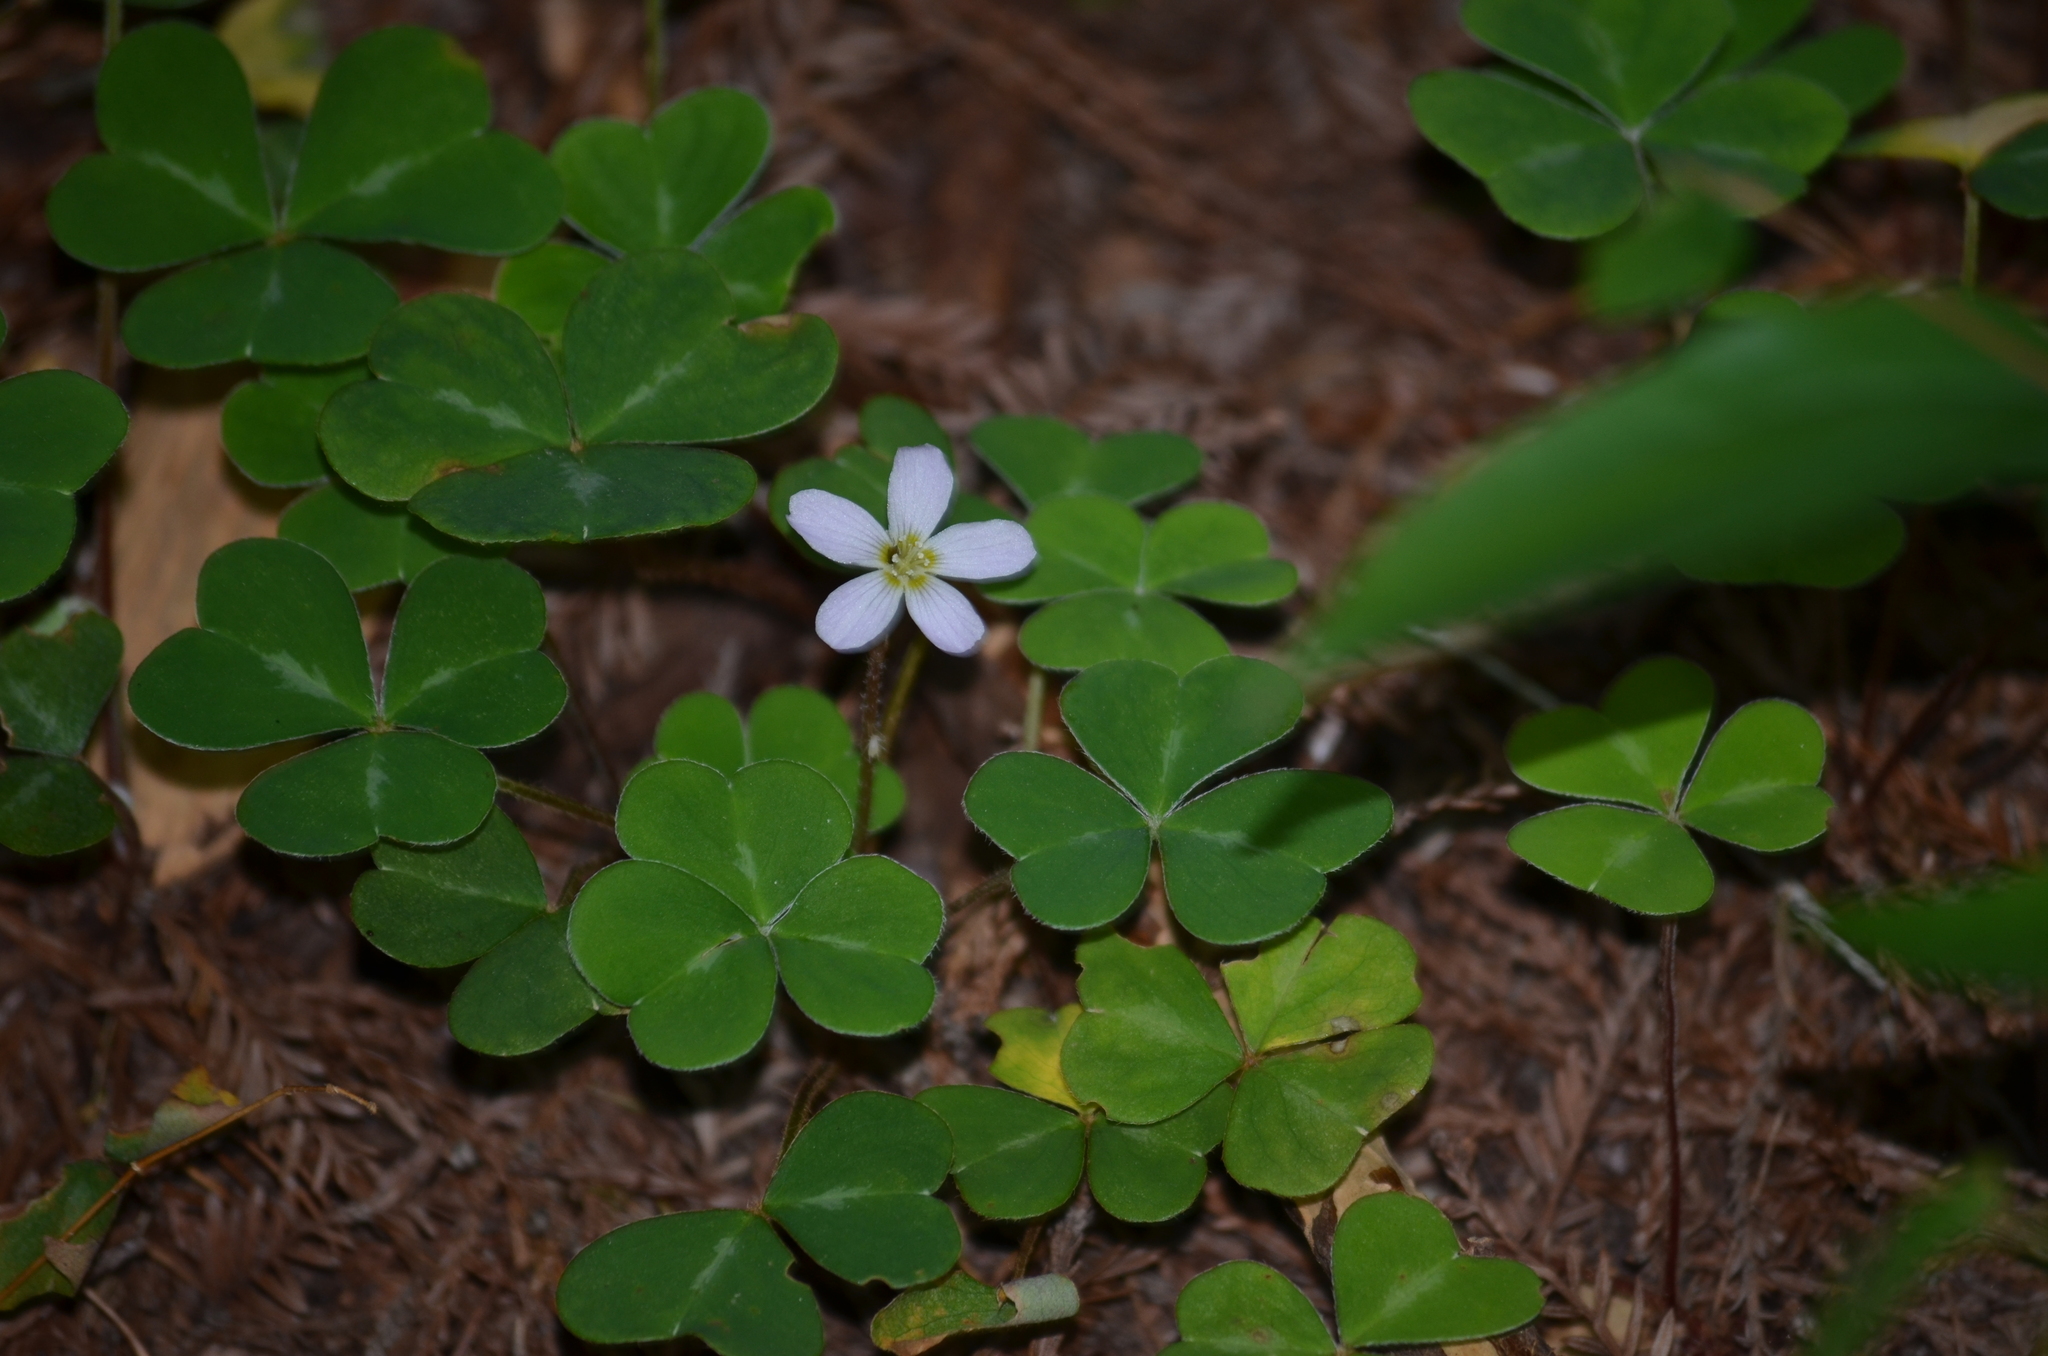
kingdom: Plantae
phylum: Tracheophyta
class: Magnoliopsida
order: Oxalidales
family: Oxalidaceae
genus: Oxalis
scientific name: Oxalis oregana
